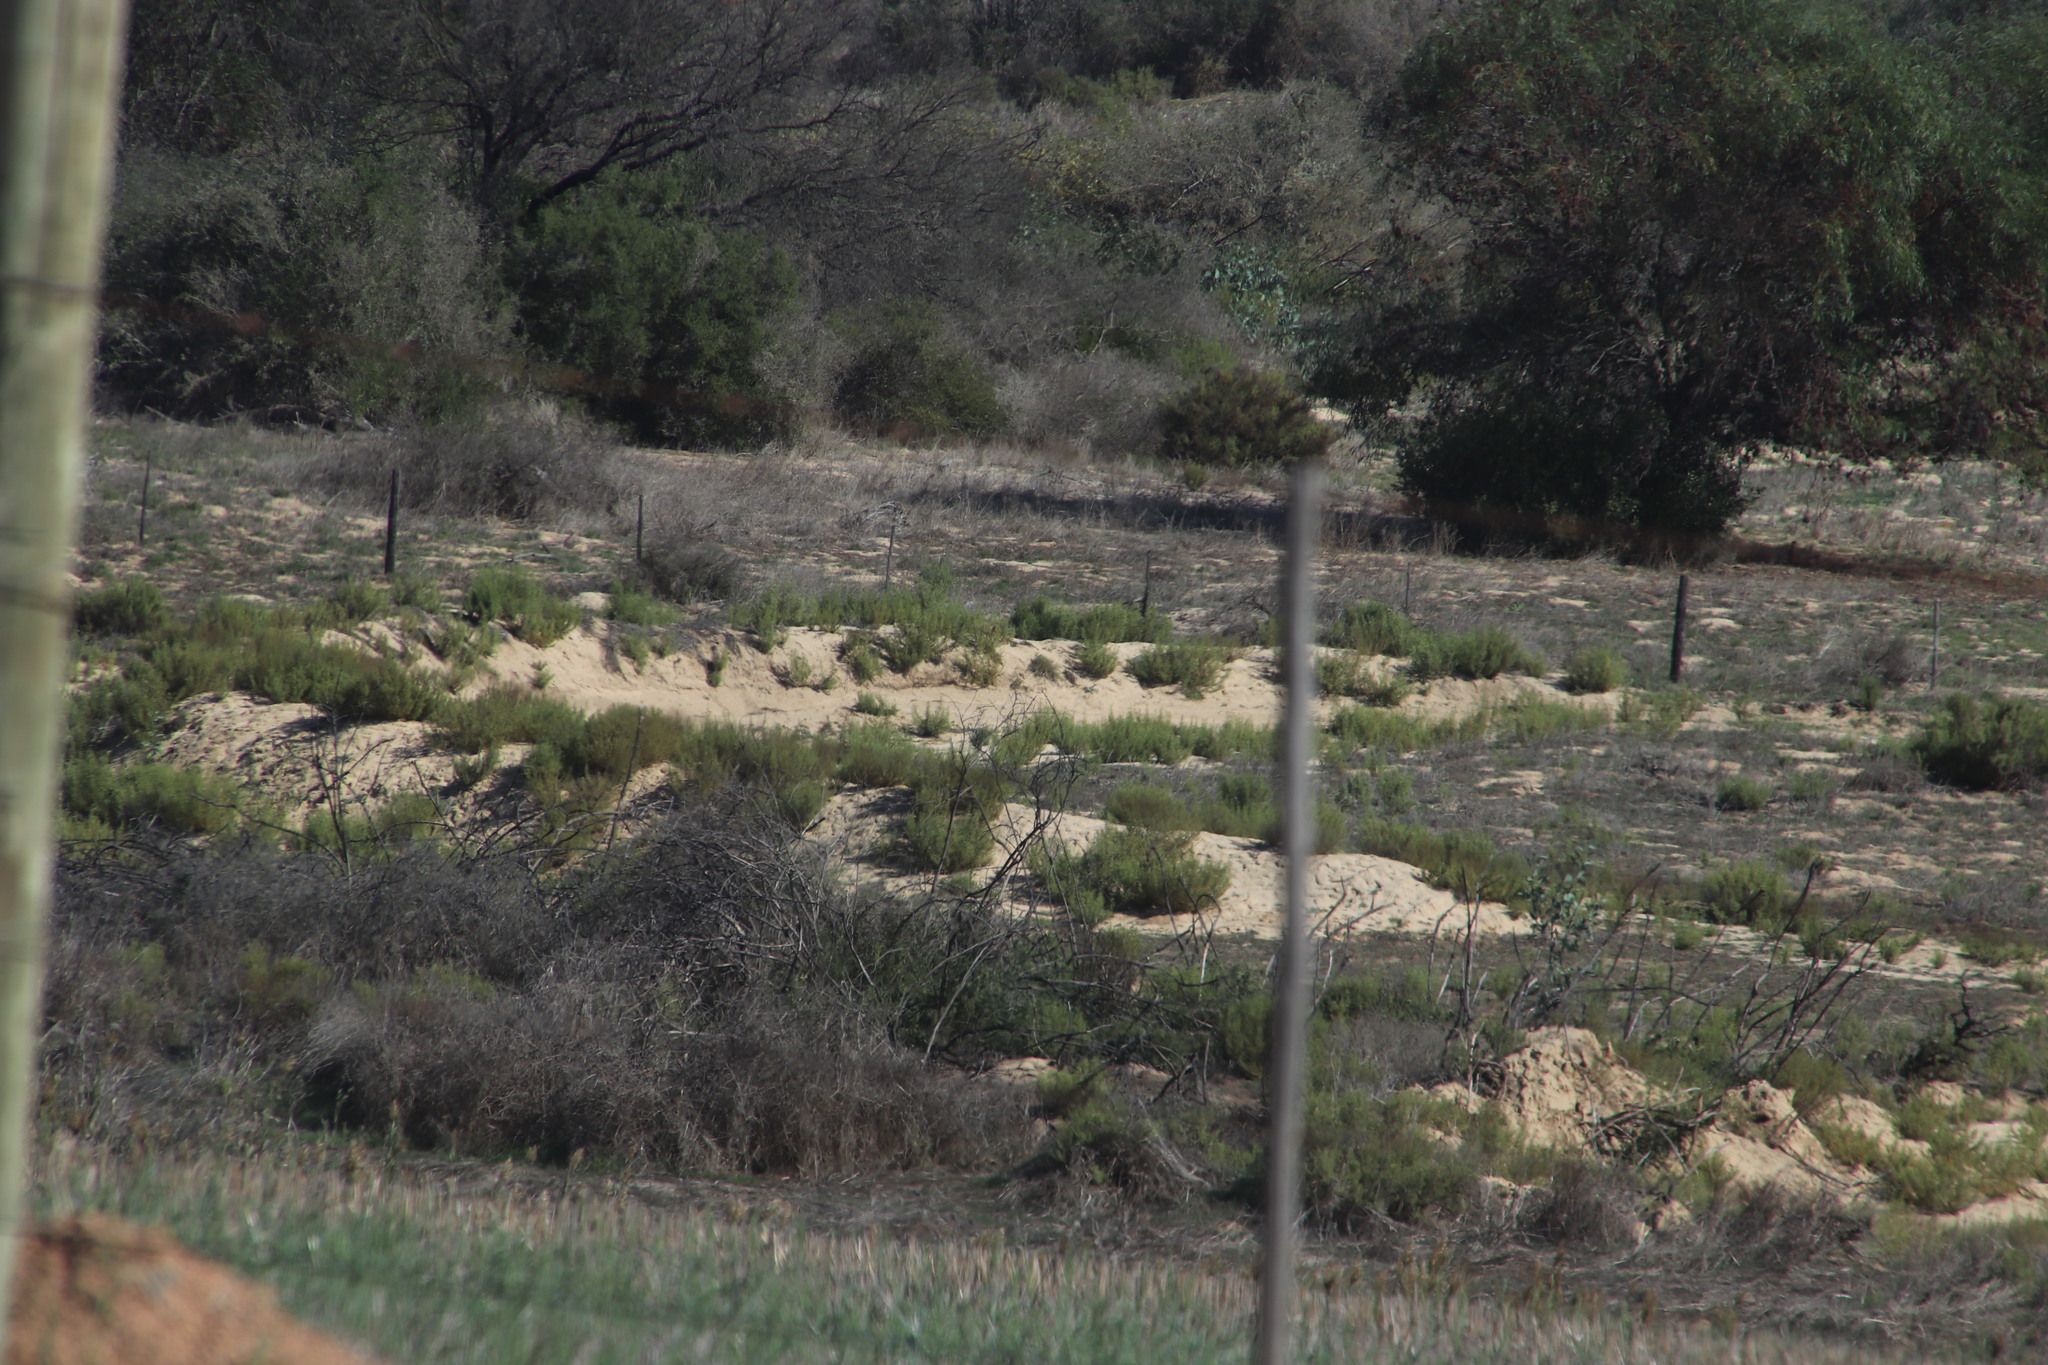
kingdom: Plantae
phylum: Tracheophyta
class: Magnoliopsida
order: Caryophyllales
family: Aizoaceae
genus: Aizoon
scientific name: Aizoon africanum
